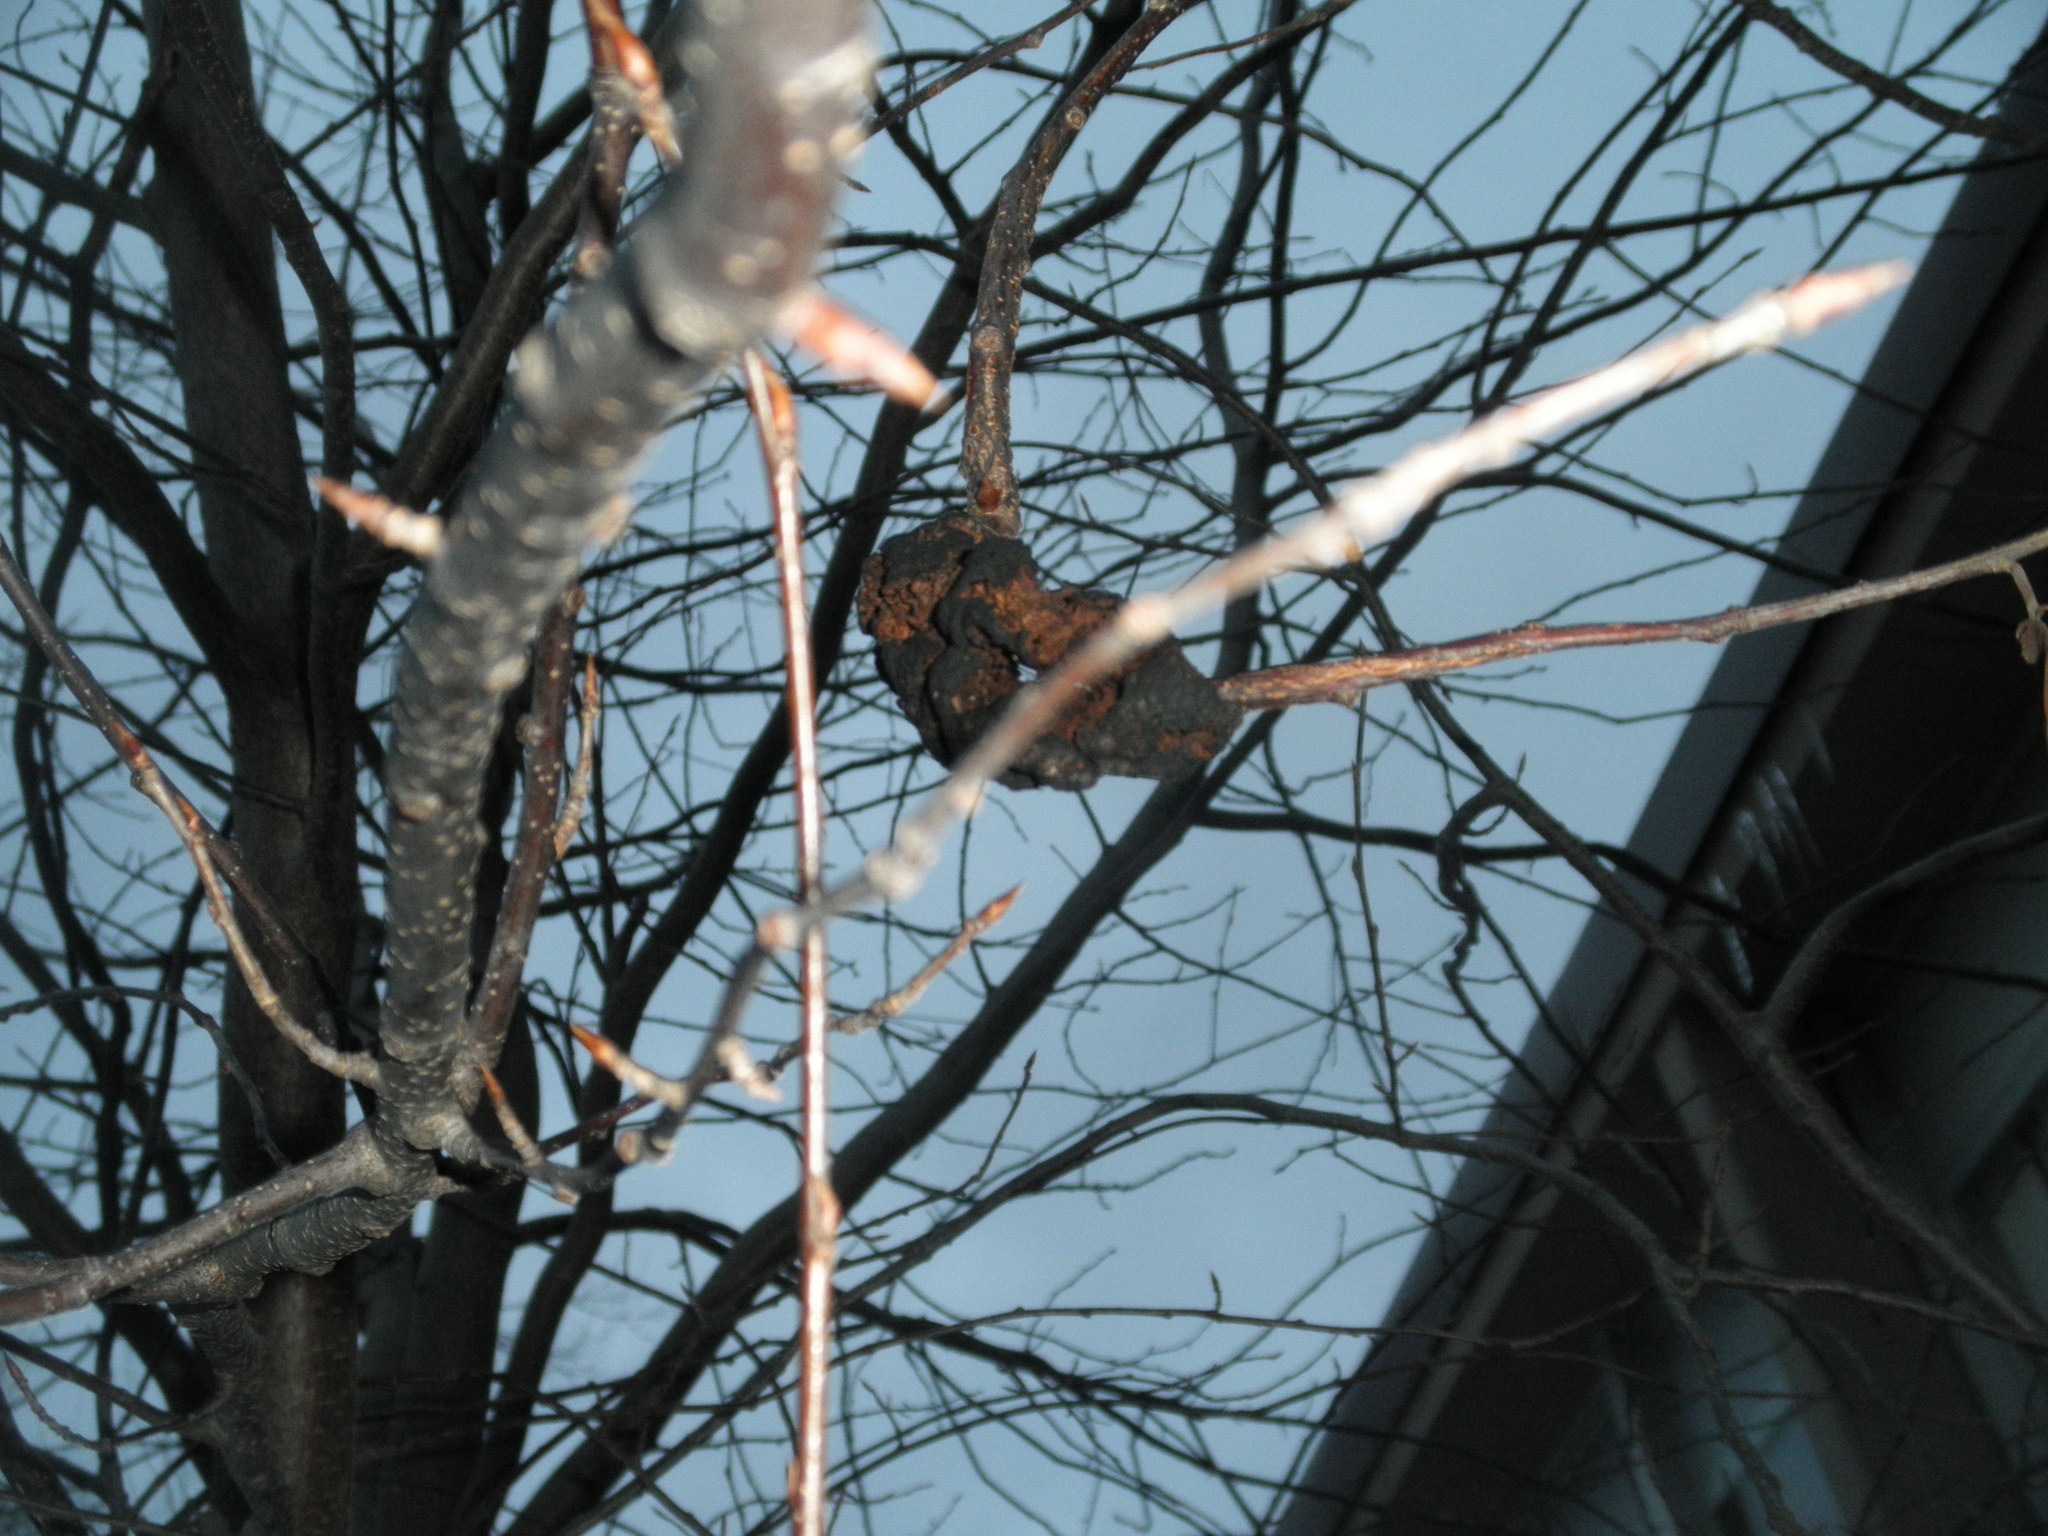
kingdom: Fungi
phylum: Ascomycota
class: Dothideomycetes
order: Venturiales
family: Venturiaceae
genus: Apiosporina
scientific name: Apiosporina morbosa
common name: Black knot
